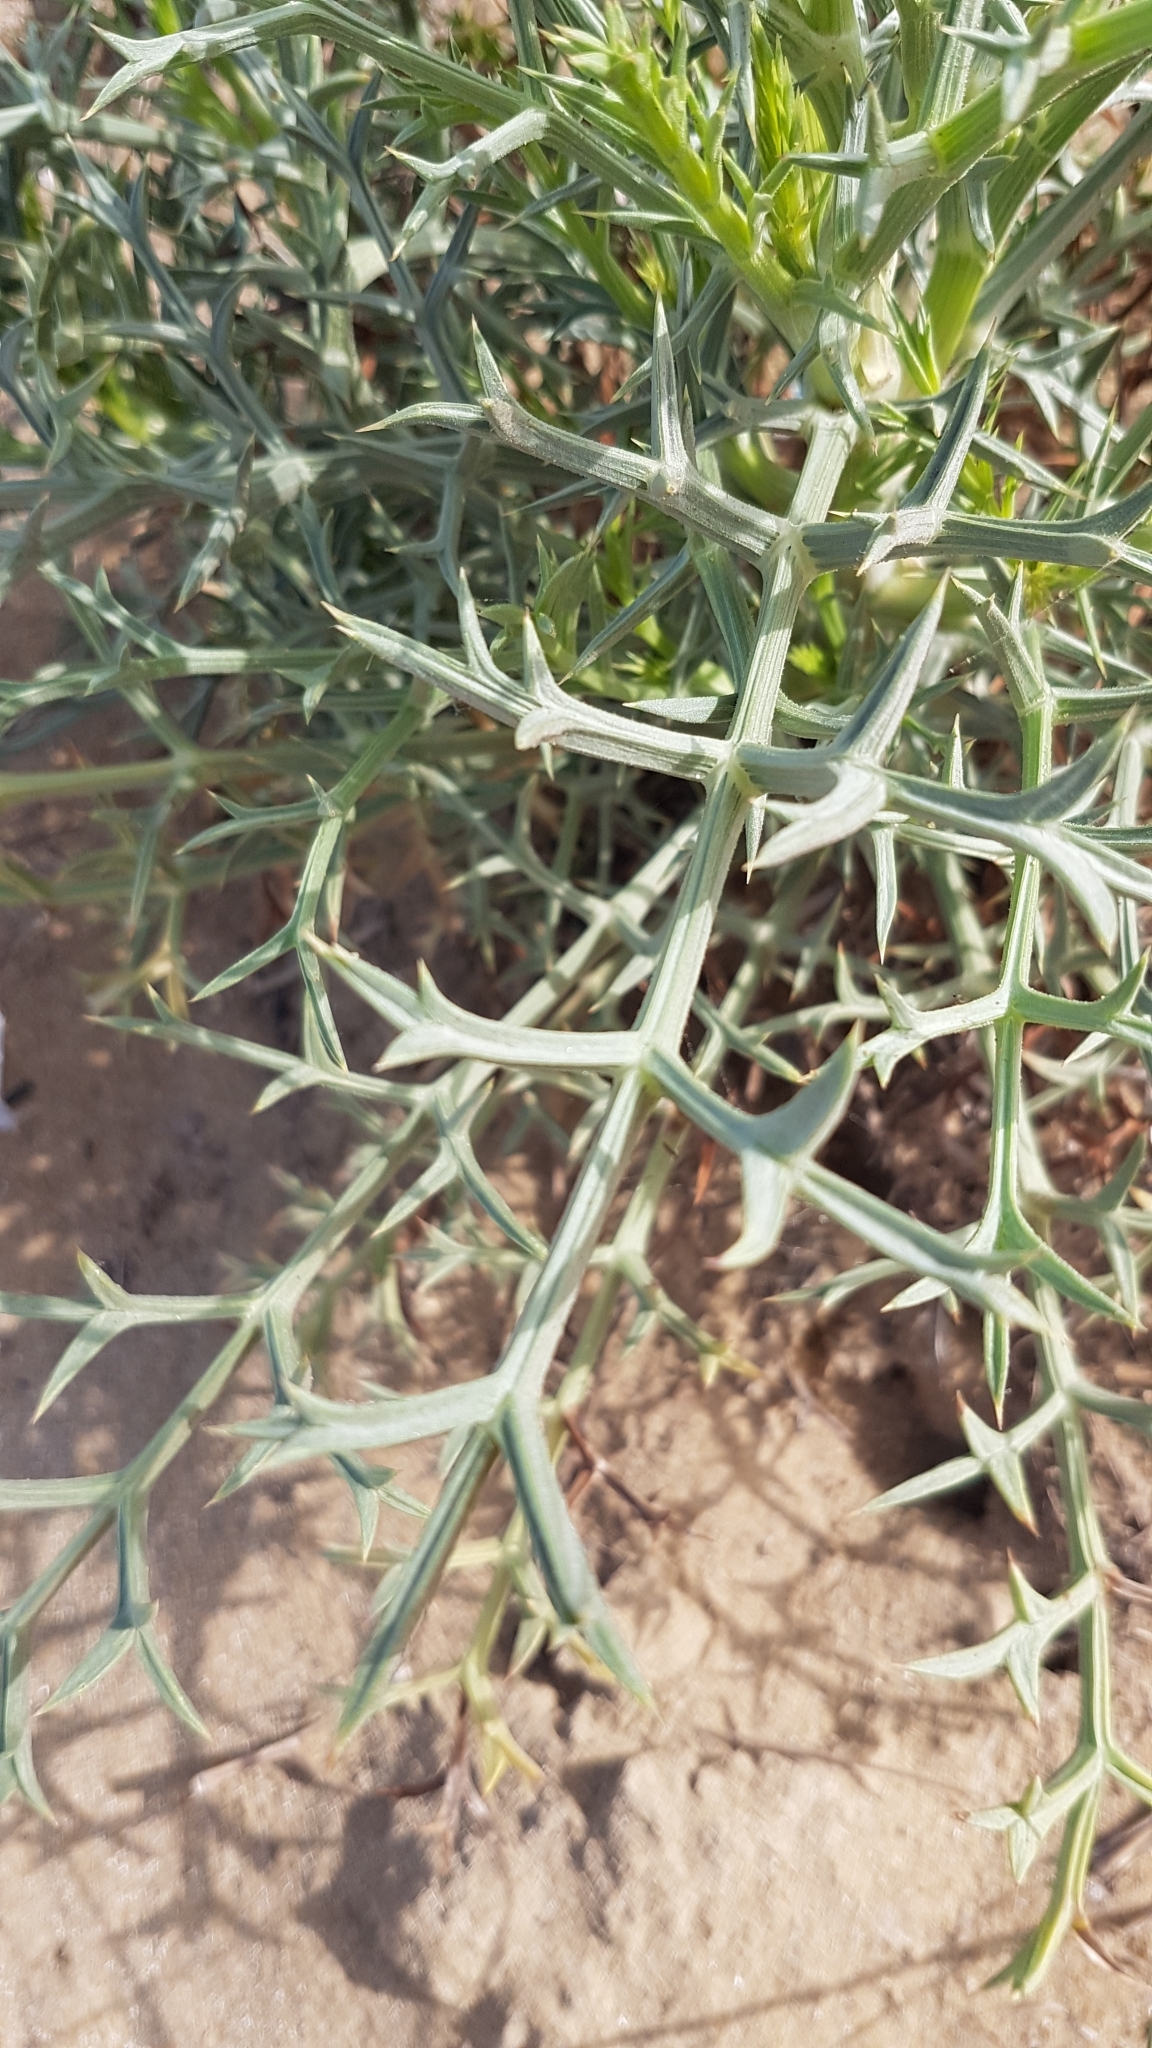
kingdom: Plantae
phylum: Tracheophyta
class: Magnoliopsida
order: Apiales
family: Apiaceae
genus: Echinophora
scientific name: Echinophora spinosa
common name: Prickly samphire
